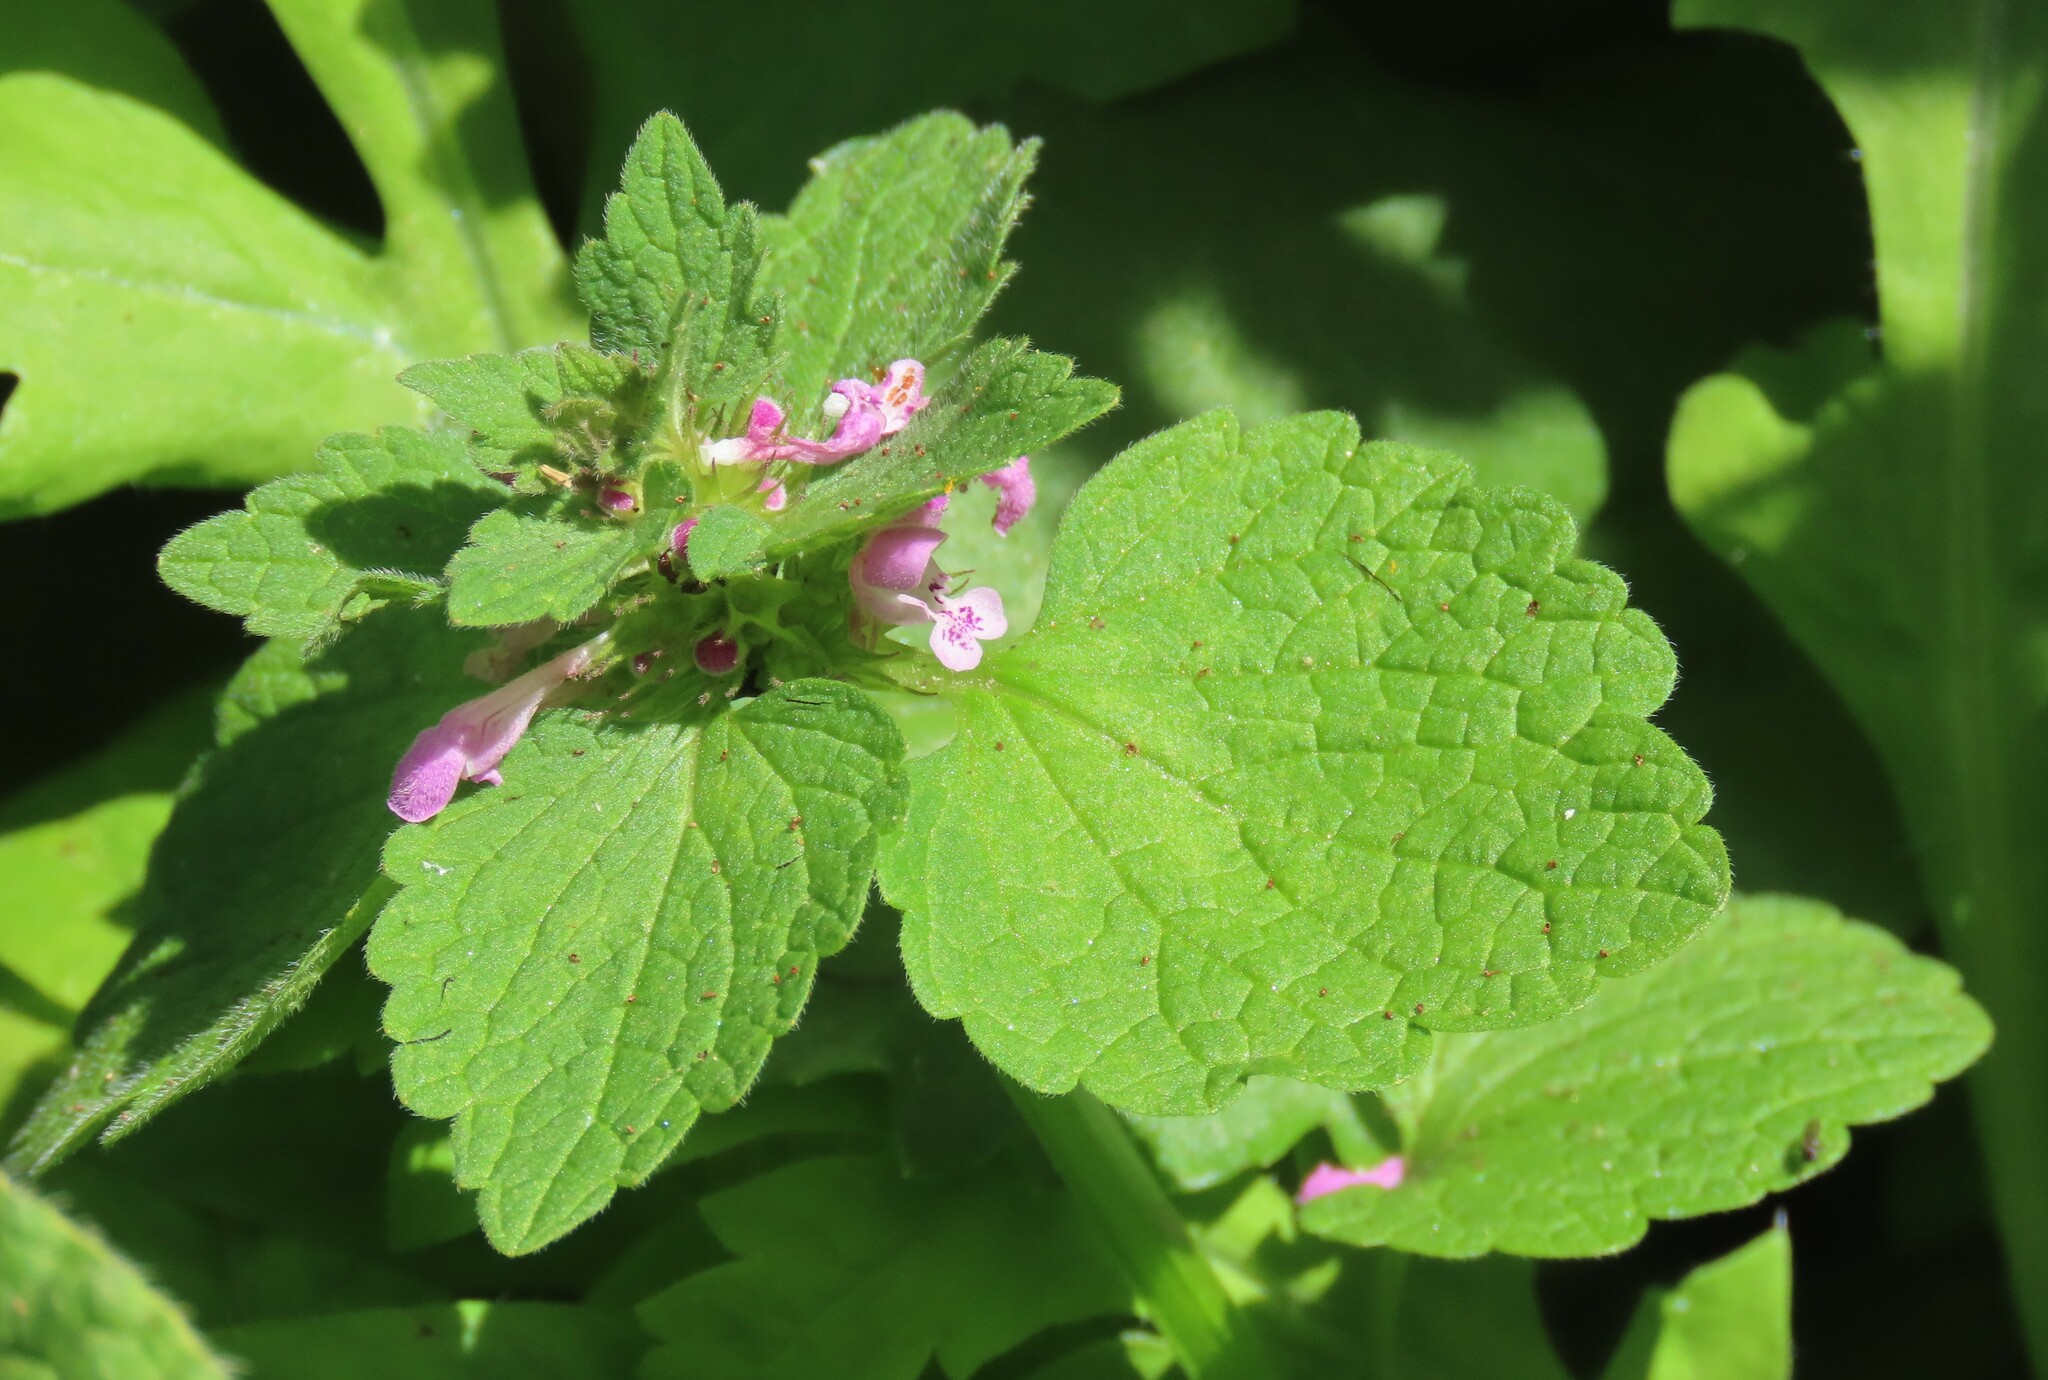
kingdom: Plantae
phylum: Tracheophyta
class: Magnoliopsida
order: Lamiales
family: Lamiaceae
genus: Lamium
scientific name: Lamium purpureum
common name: Red dead-nettle
